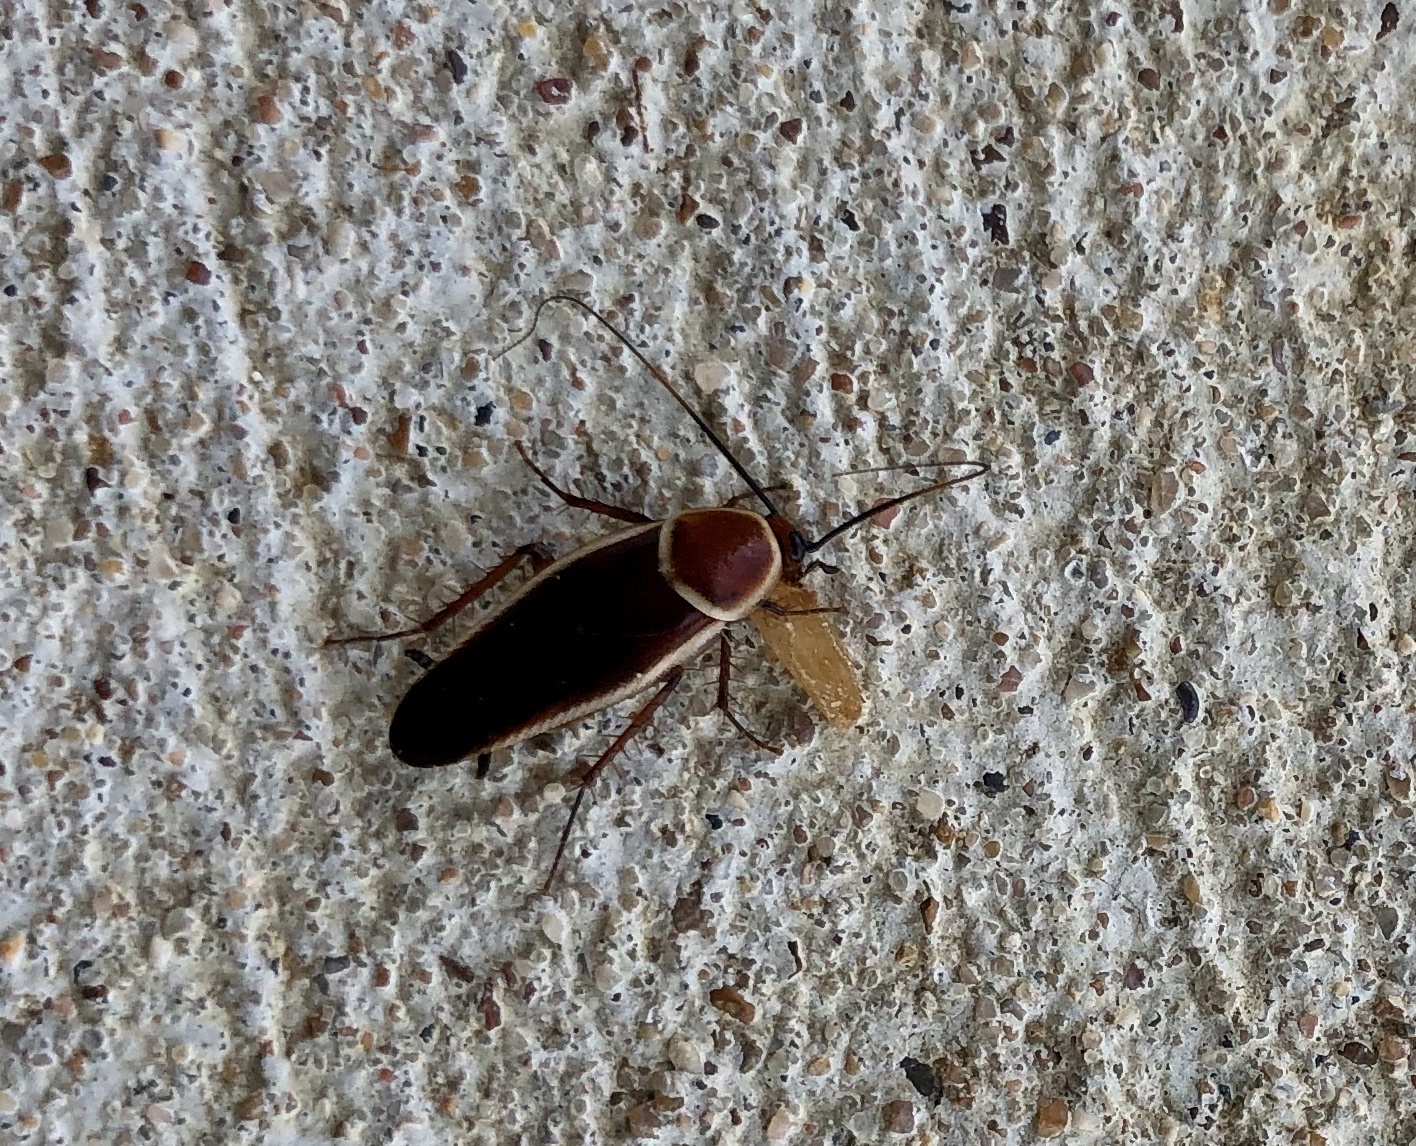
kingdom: Animalia
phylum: Arthropoda
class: Insecta
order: Blattodea
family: Ectobiidae
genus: Pseudomops
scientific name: Pseudomops septentrionalis
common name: Pale-bordered field cockroach
